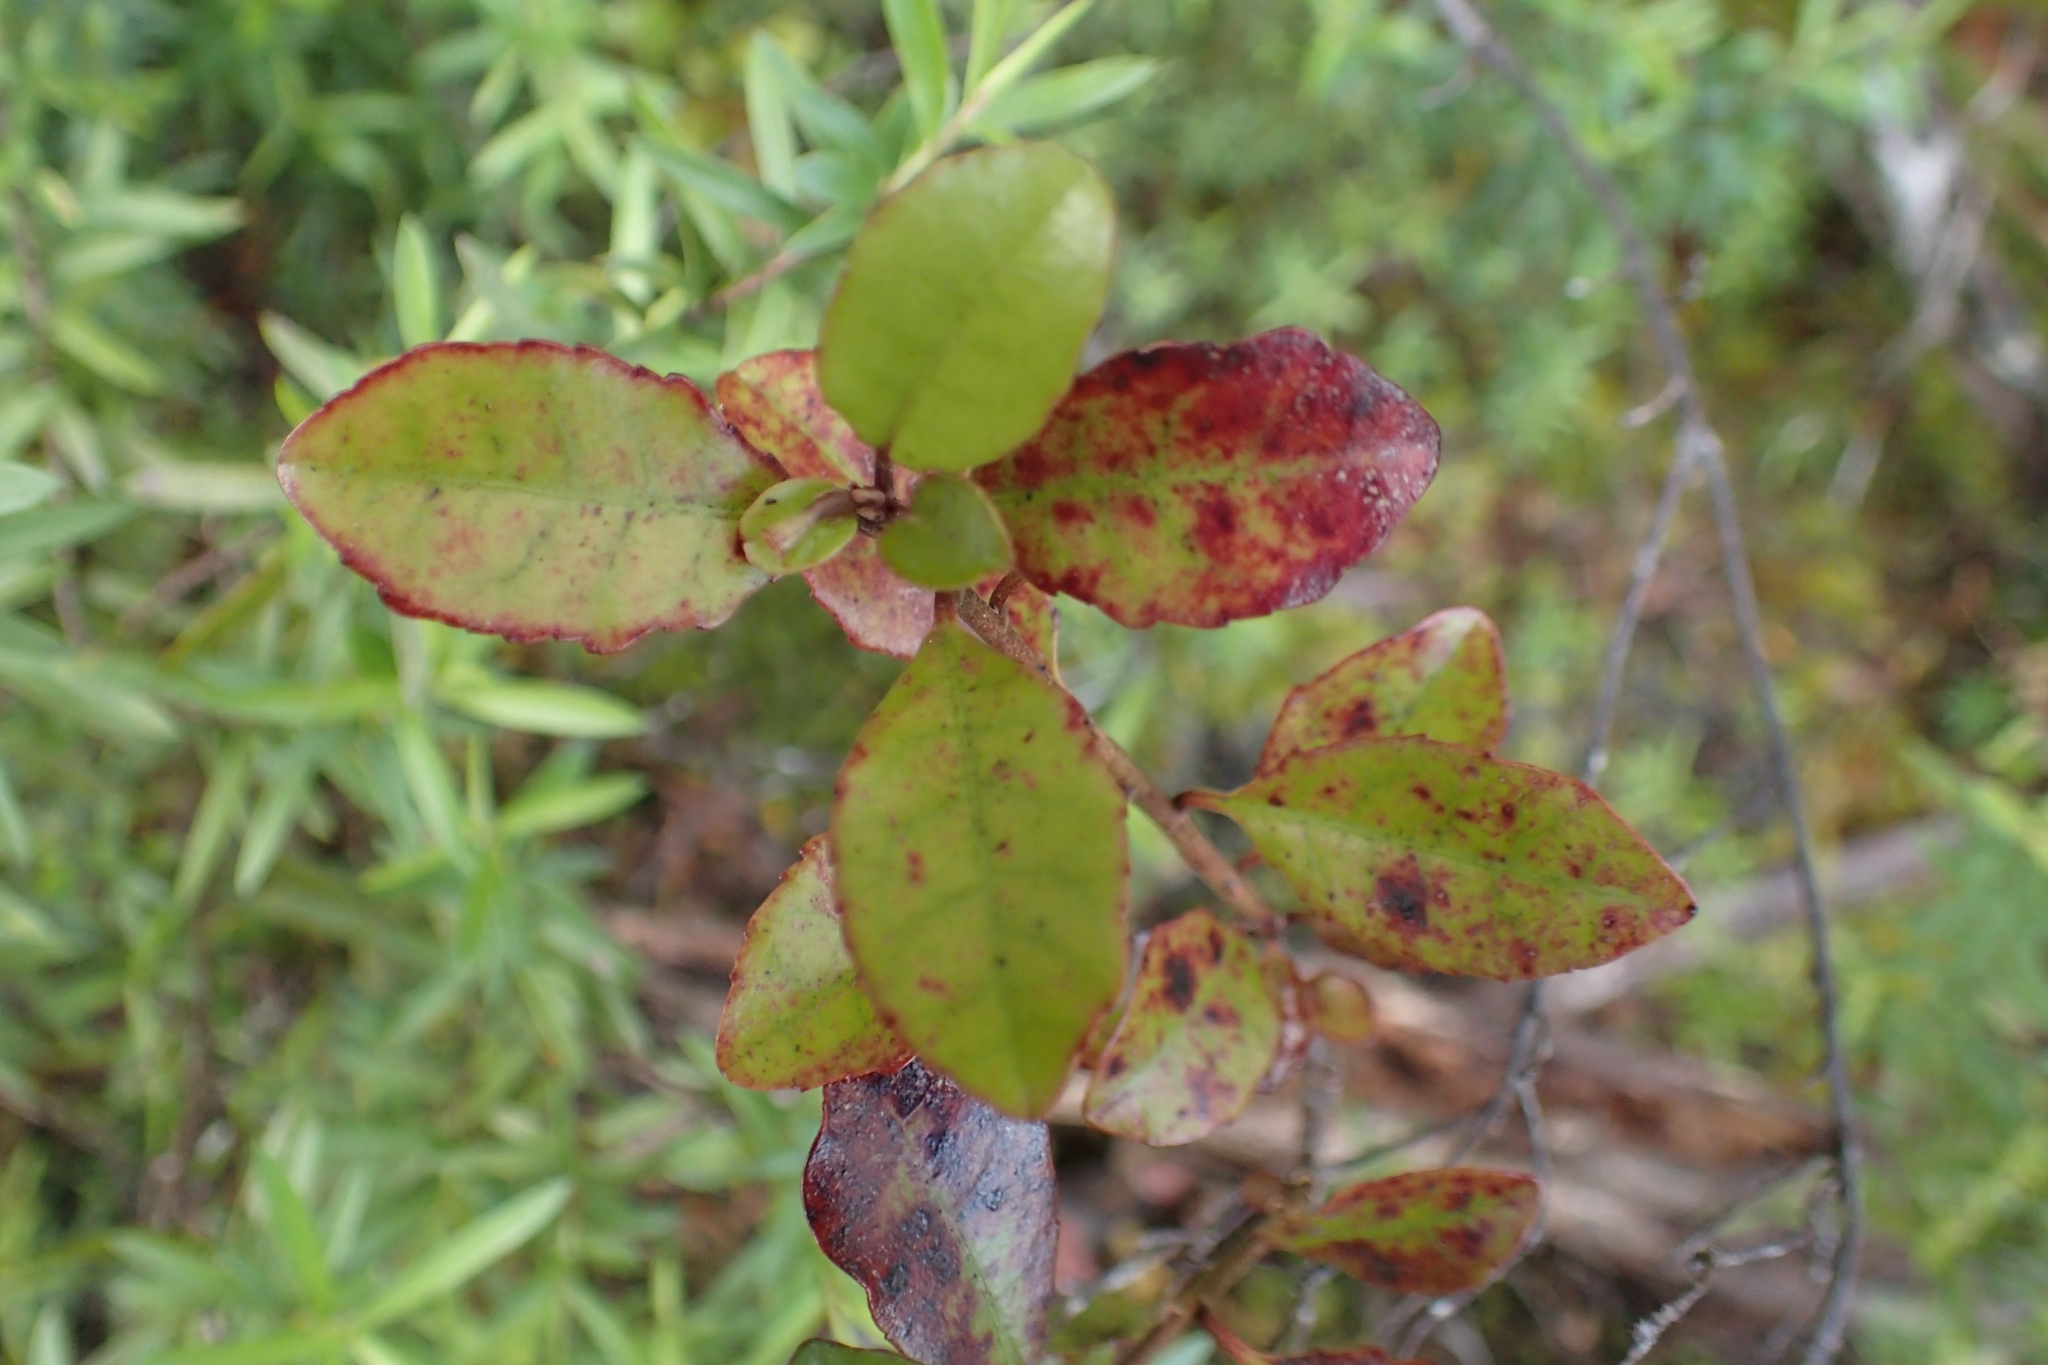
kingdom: Plantae
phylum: Tracheophyta
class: Magnoliopsida
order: Asterales
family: Alseuosmiaceae
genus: Alseuosmia
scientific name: Alseuosmia banksii
